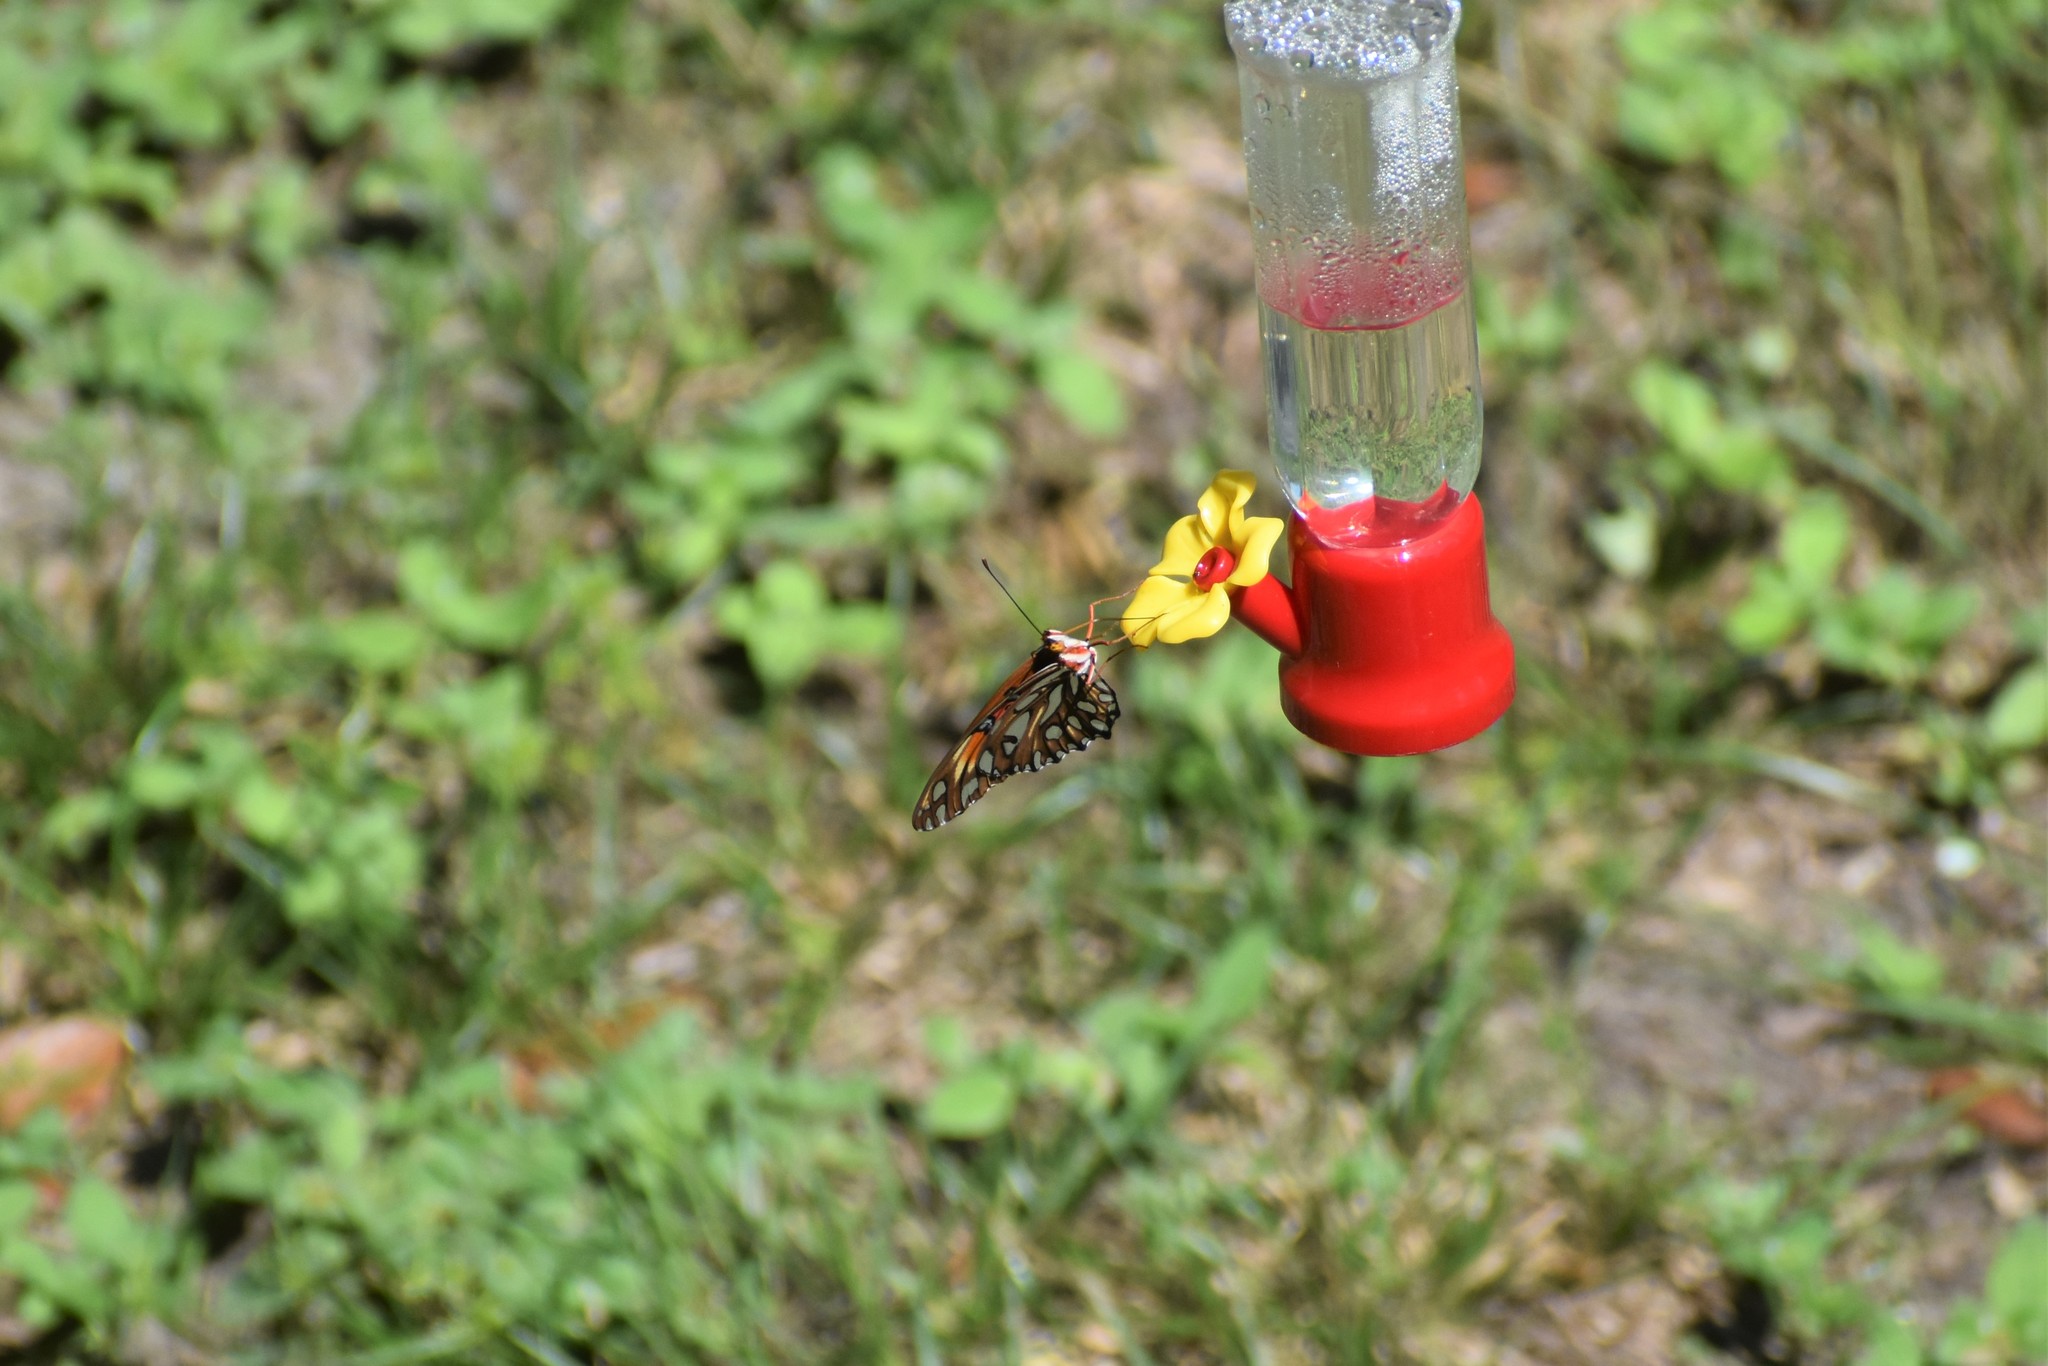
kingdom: Animalia
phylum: Arthropoda
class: Insecta
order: Lepidoptera
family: Nymphalidae
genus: Dione
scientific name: Dione vanillae
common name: Gulf fritillary
